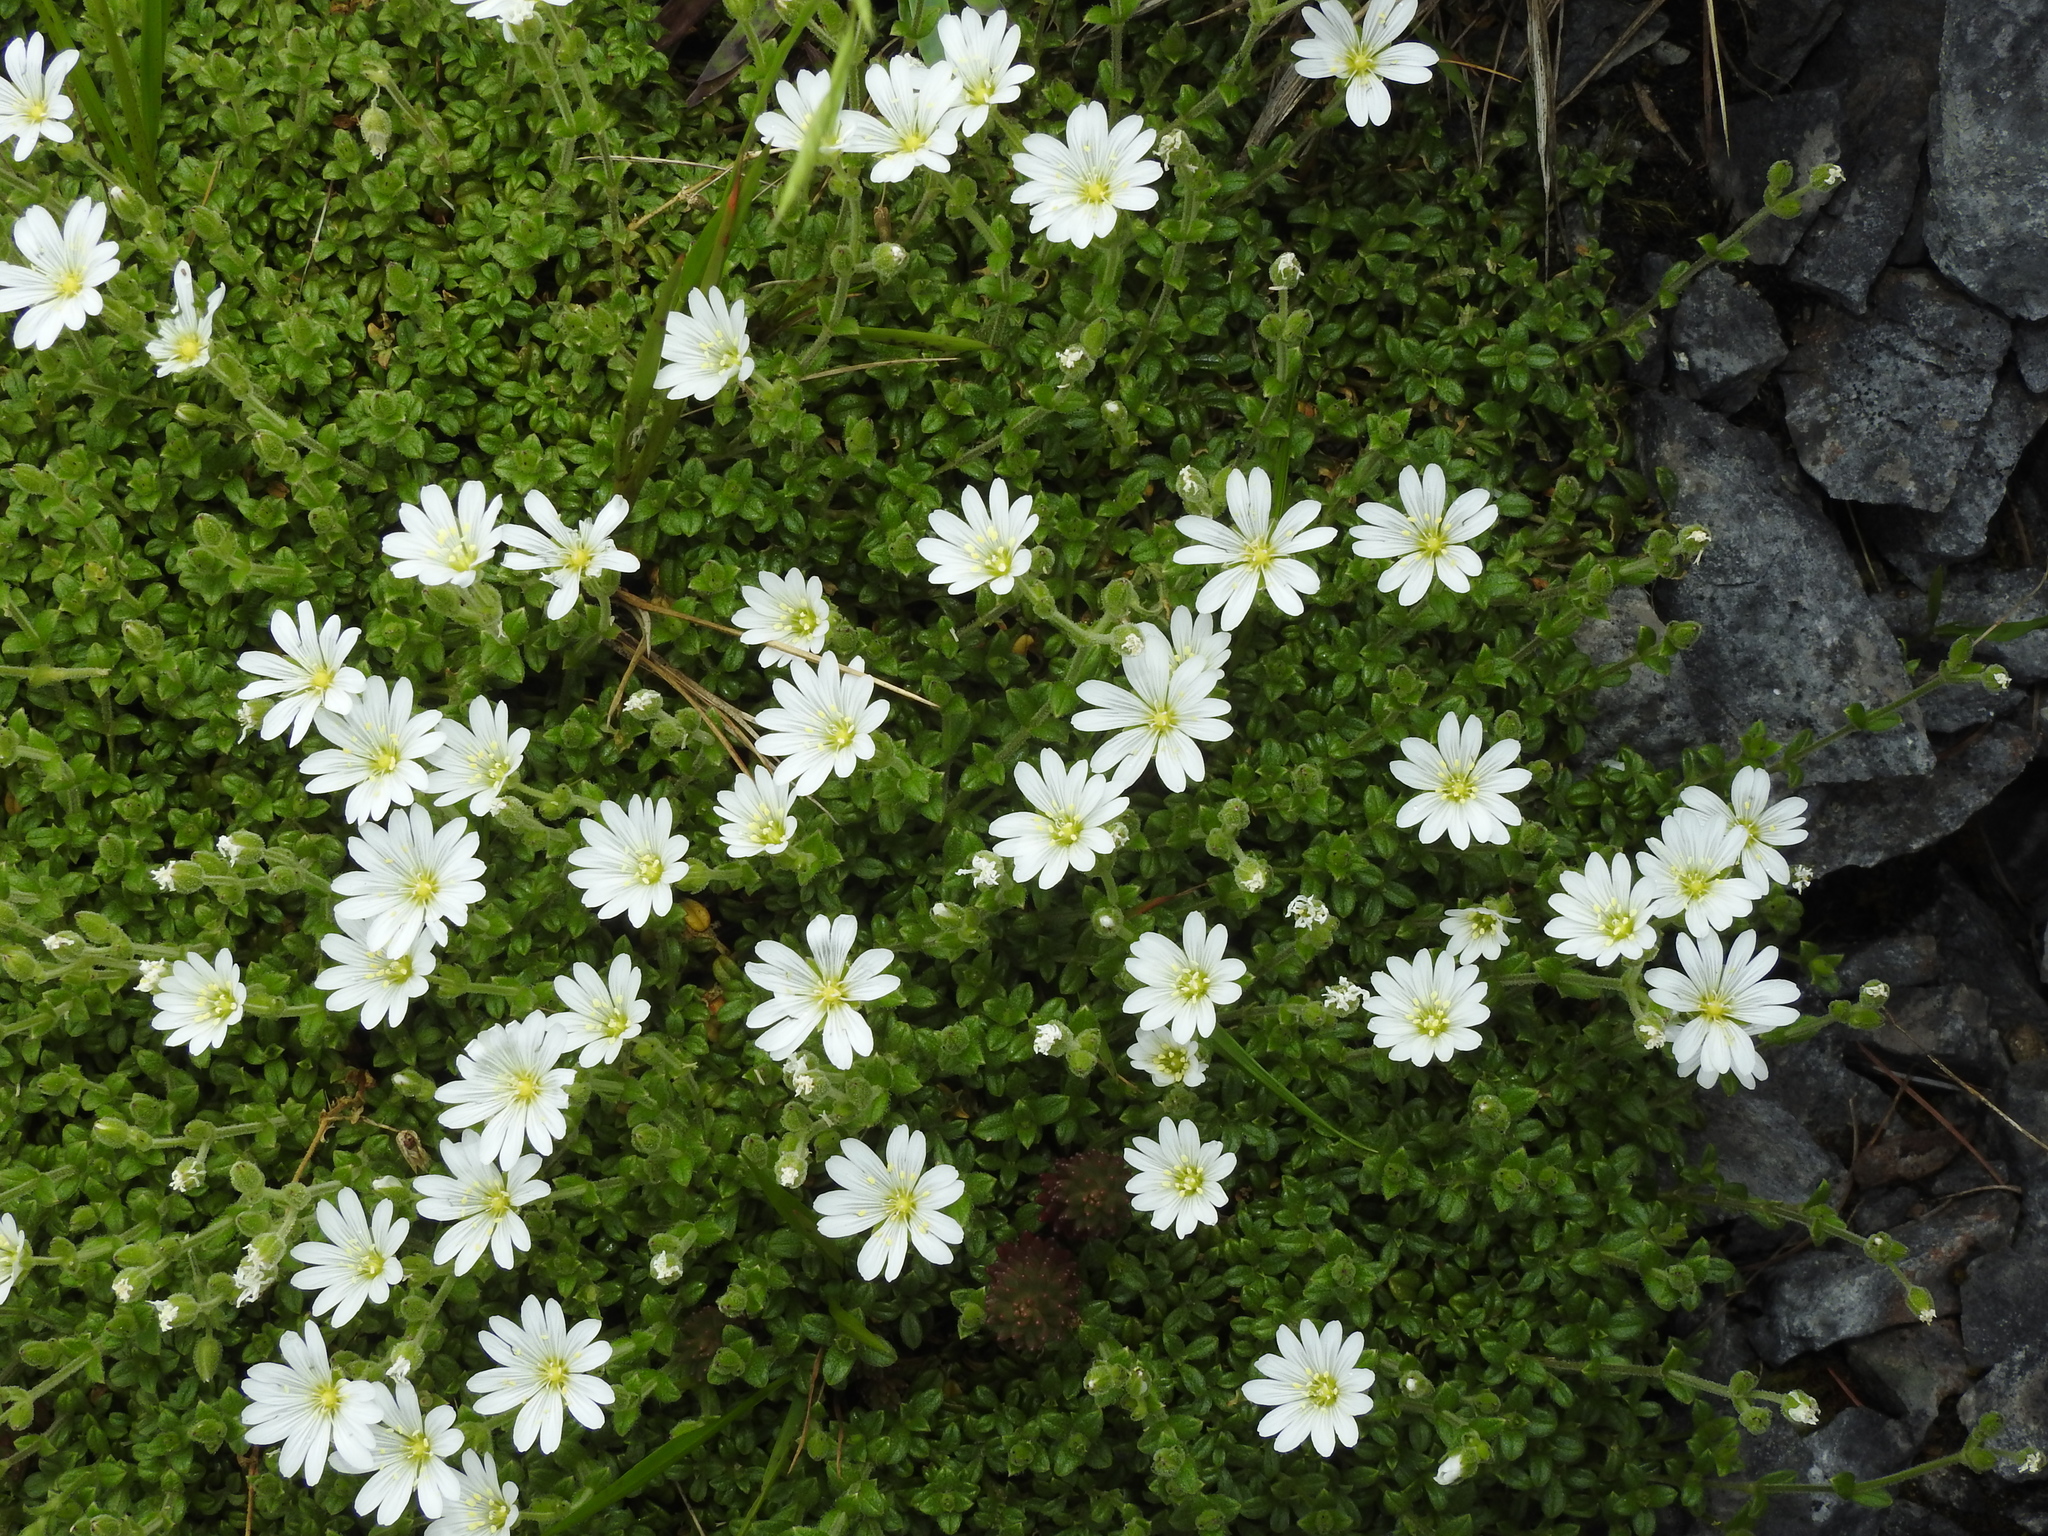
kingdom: Plantae
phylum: Tracheophyta
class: Magnoliopsida
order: Caryophyllales
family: Caryophyllaceae
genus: Cerastium
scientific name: Cerastium arvense
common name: Field mouse-ear
